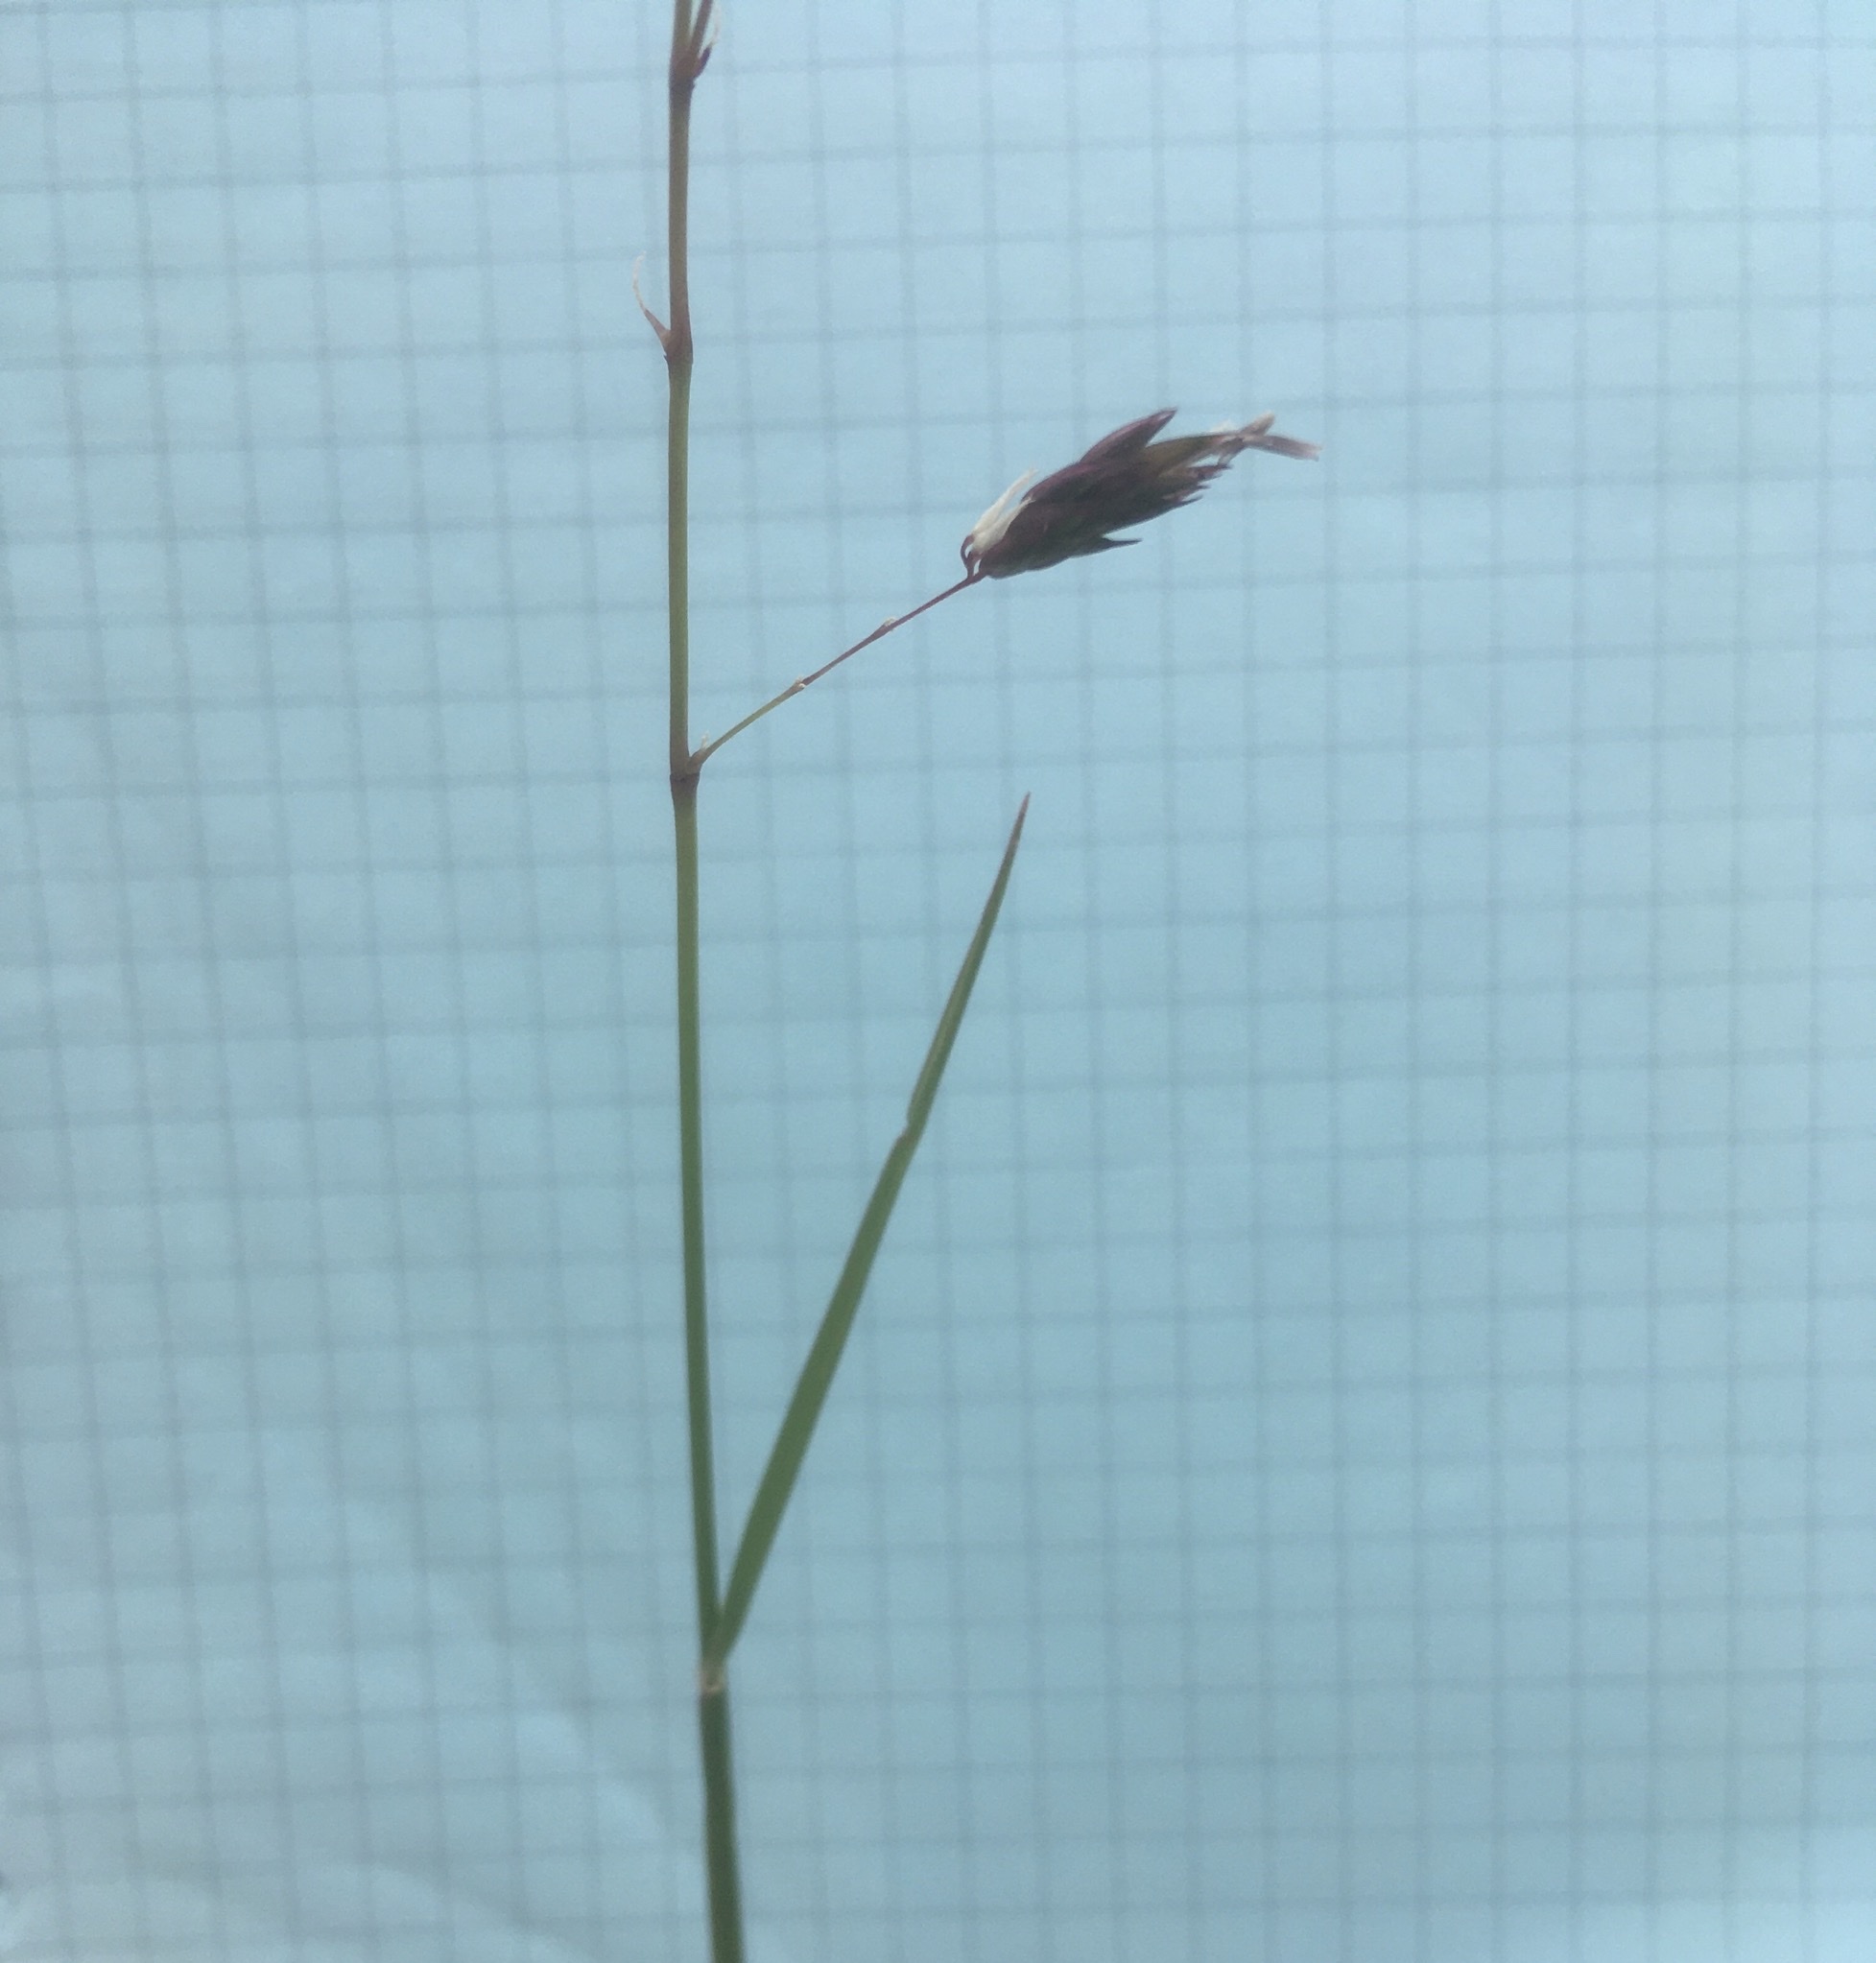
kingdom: Plantae
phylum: Tracheophyta
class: Liliopsida
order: Poales
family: Poaceae
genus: Phalaris
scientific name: Phalaris arundinacea
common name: Reed canary-grass
